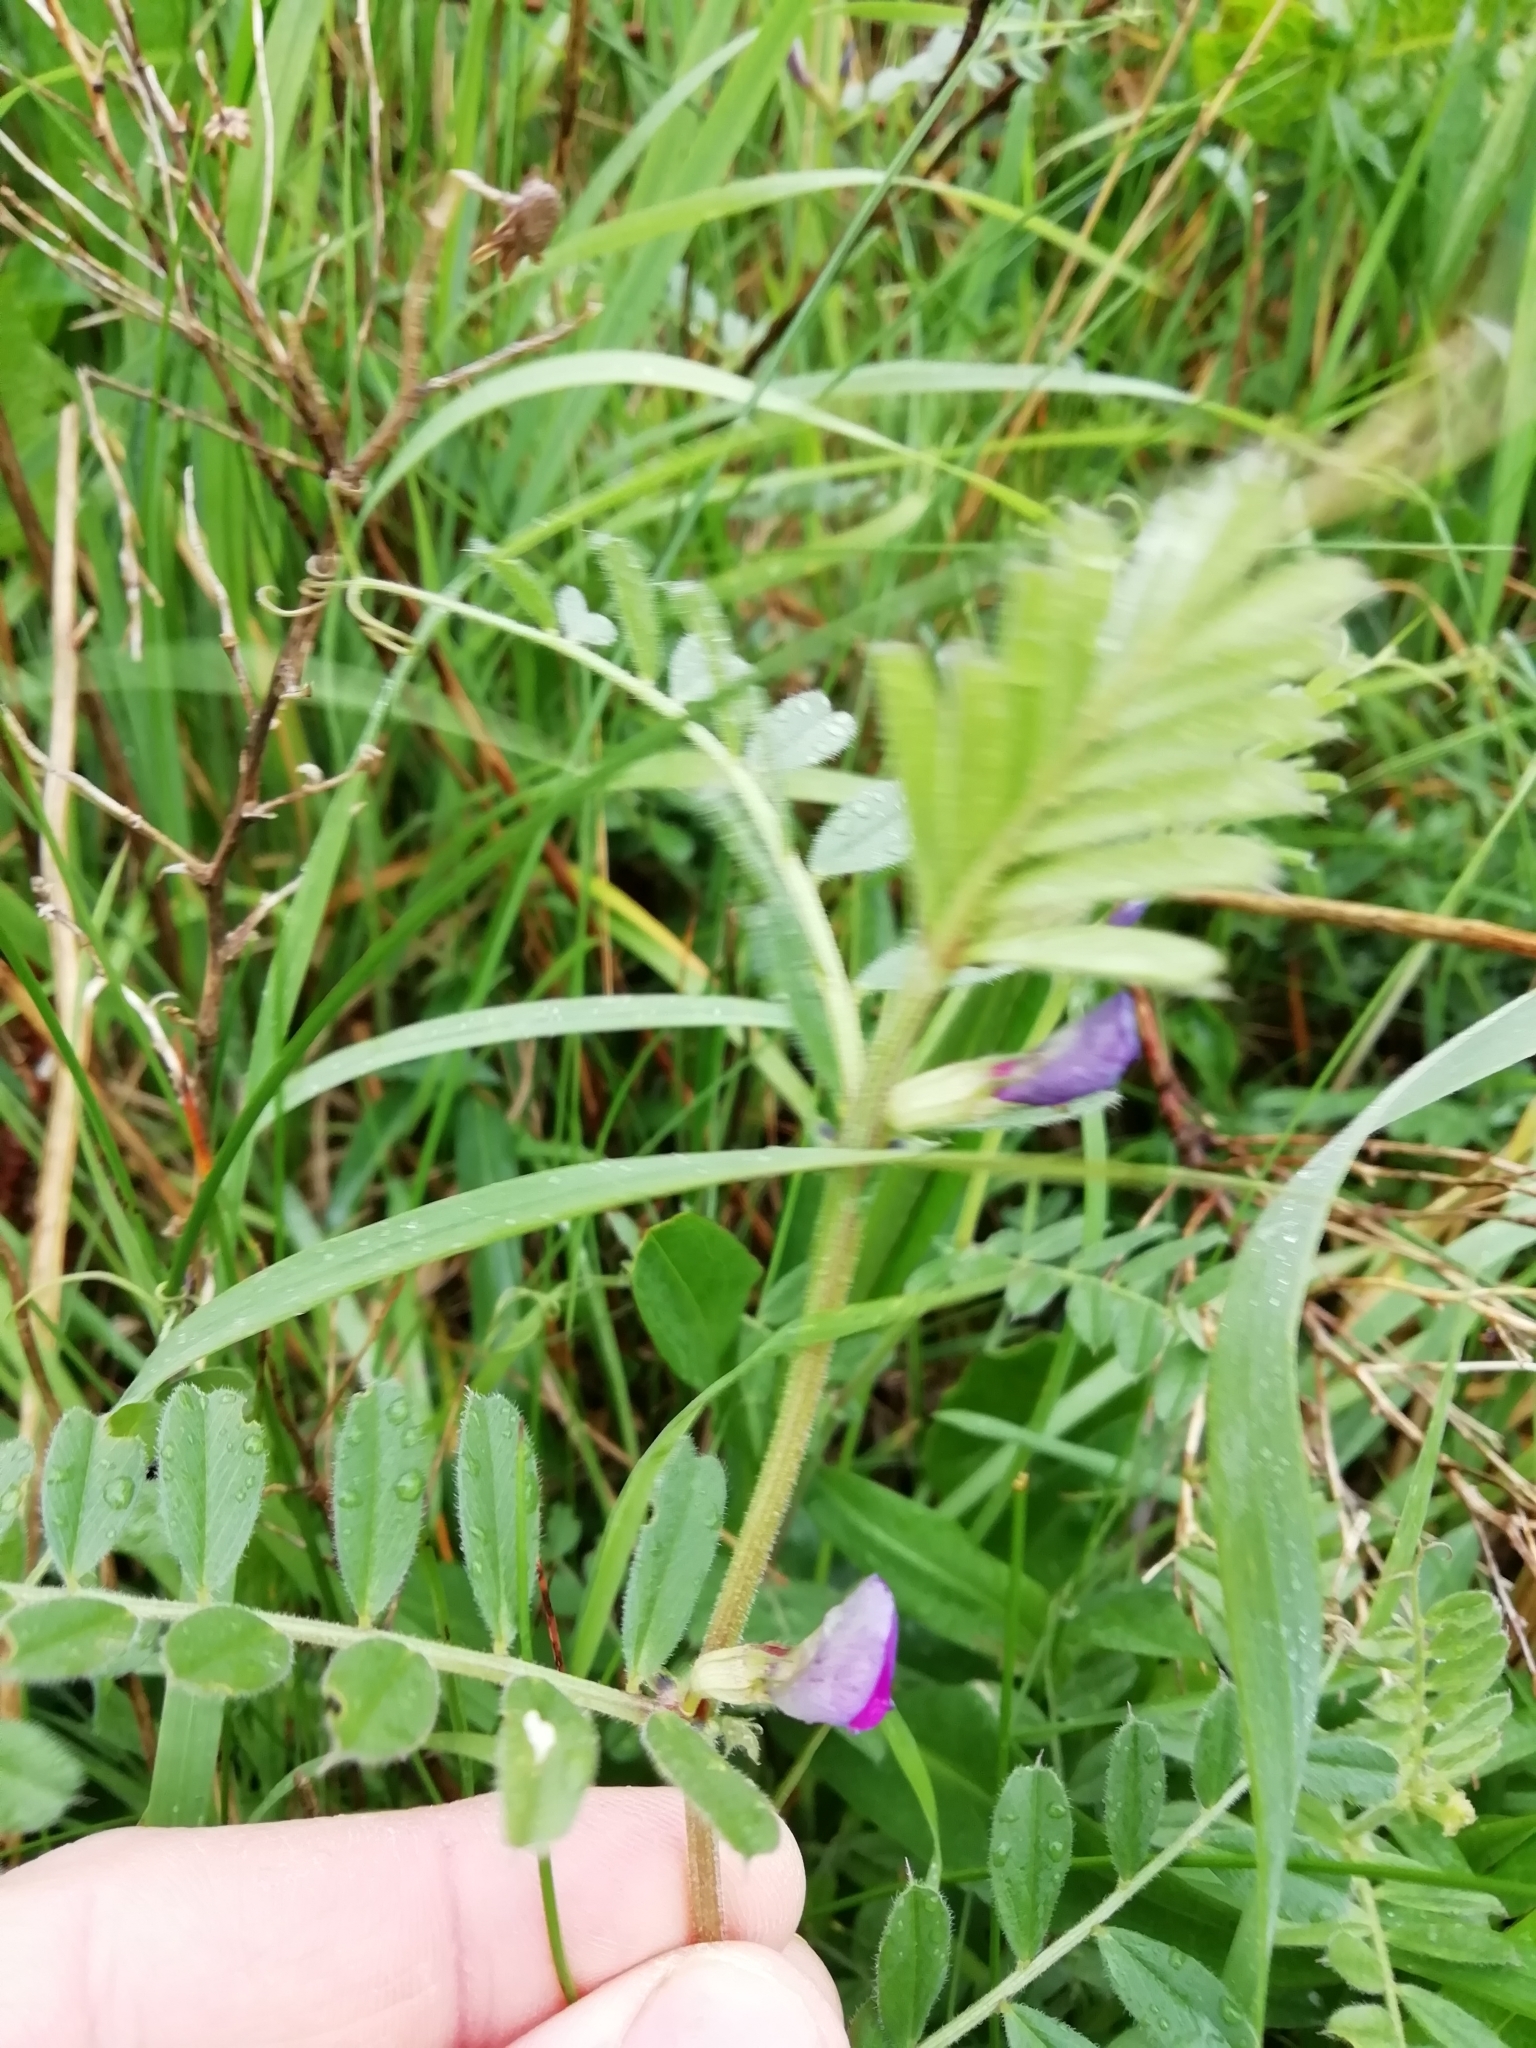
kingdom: Plantae
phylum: Tracheophyta
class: Magnoliopsida
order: Fabales
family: Fabaceae
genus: Vicia
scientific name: Vicia sativa
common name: Garden vetch
